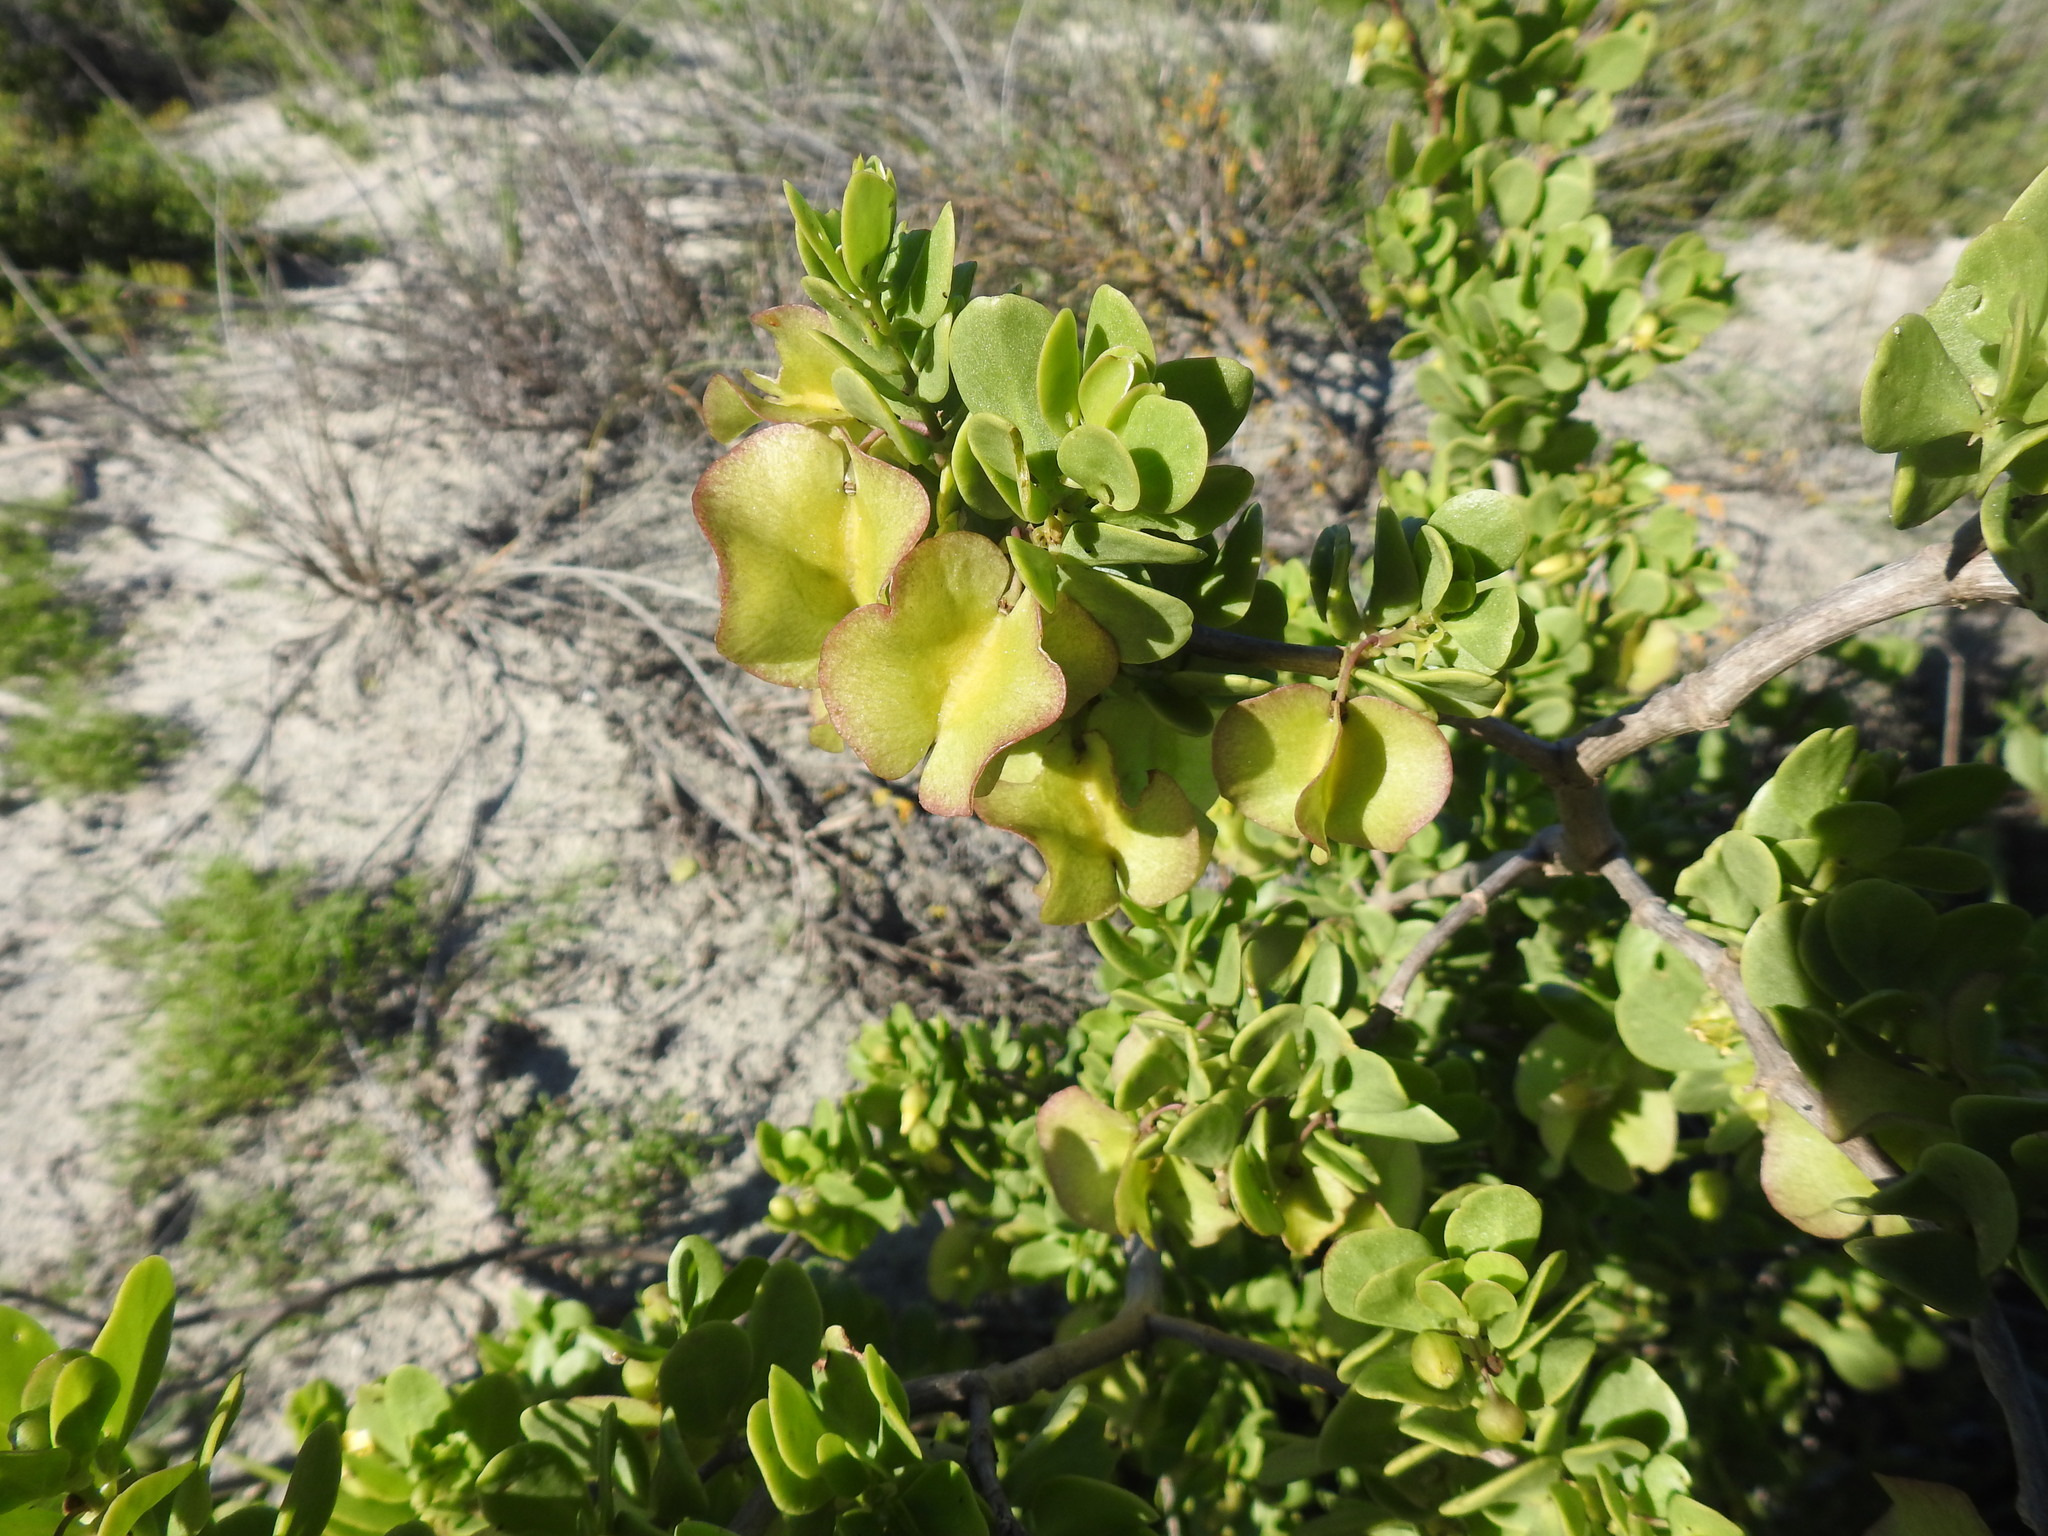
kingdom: Plantae
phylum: Tracheophyta
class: Magnoliopsida
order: Zygophyllales
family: Zygophyllaceae
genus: Roepera
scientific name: Roepera morgsana
